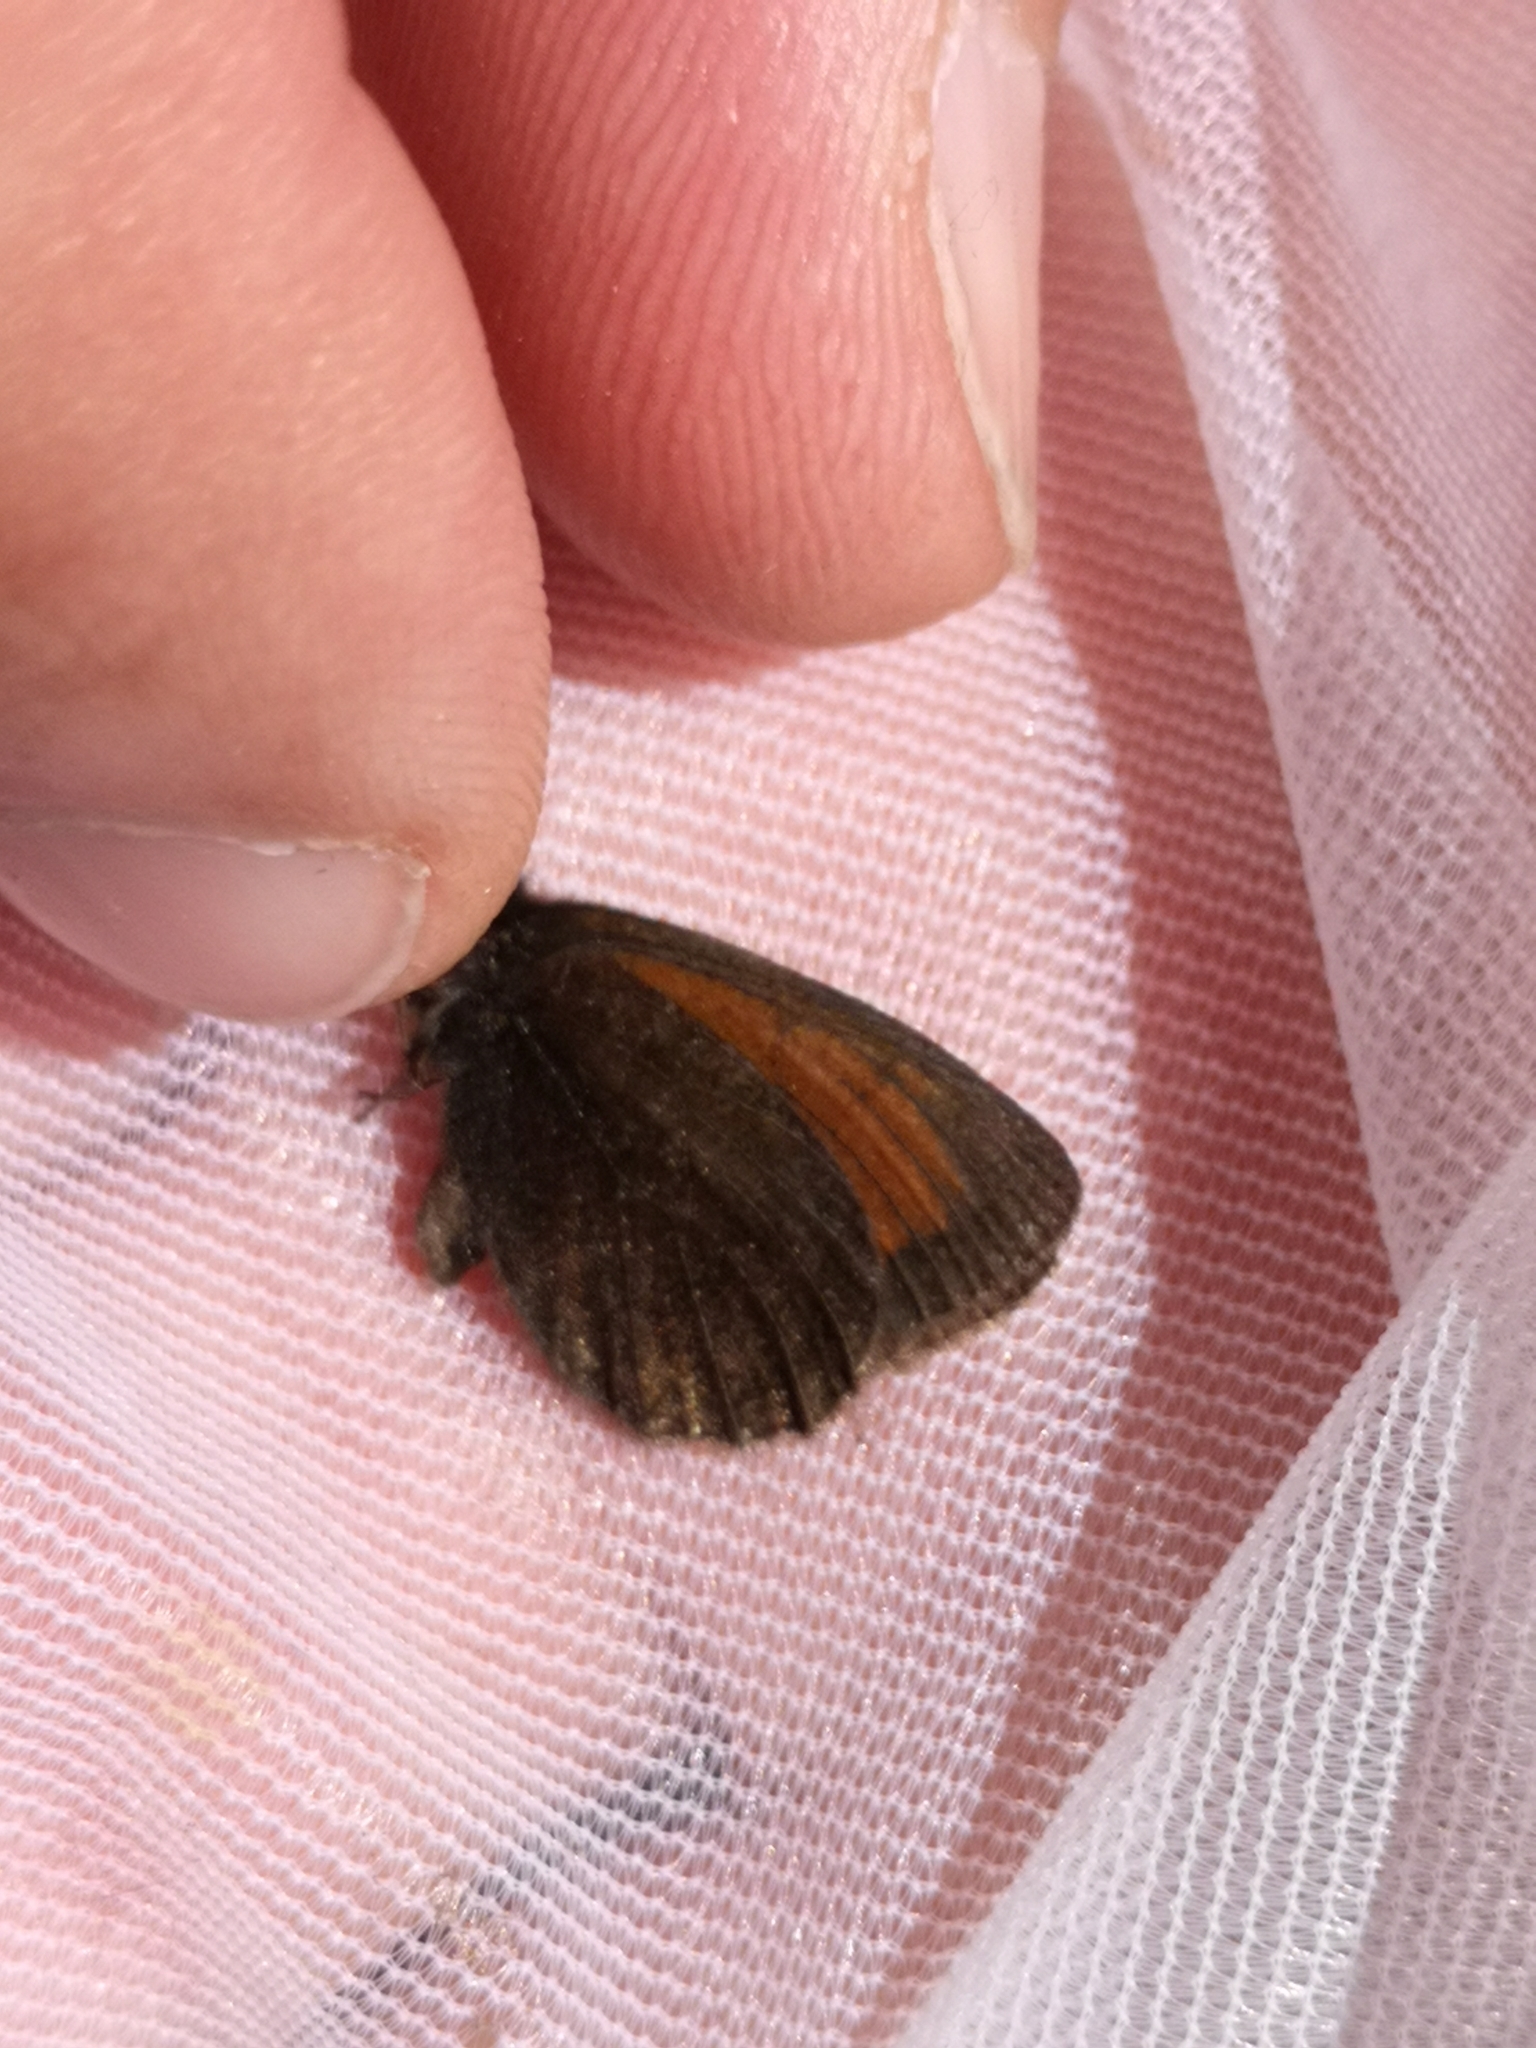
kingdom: Animalia
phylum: Arthropoda
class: Insecta
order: Lepidoptera
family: Nymphalidae
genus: Erebia
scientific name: Erebia gorge
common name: Silky ringlet
